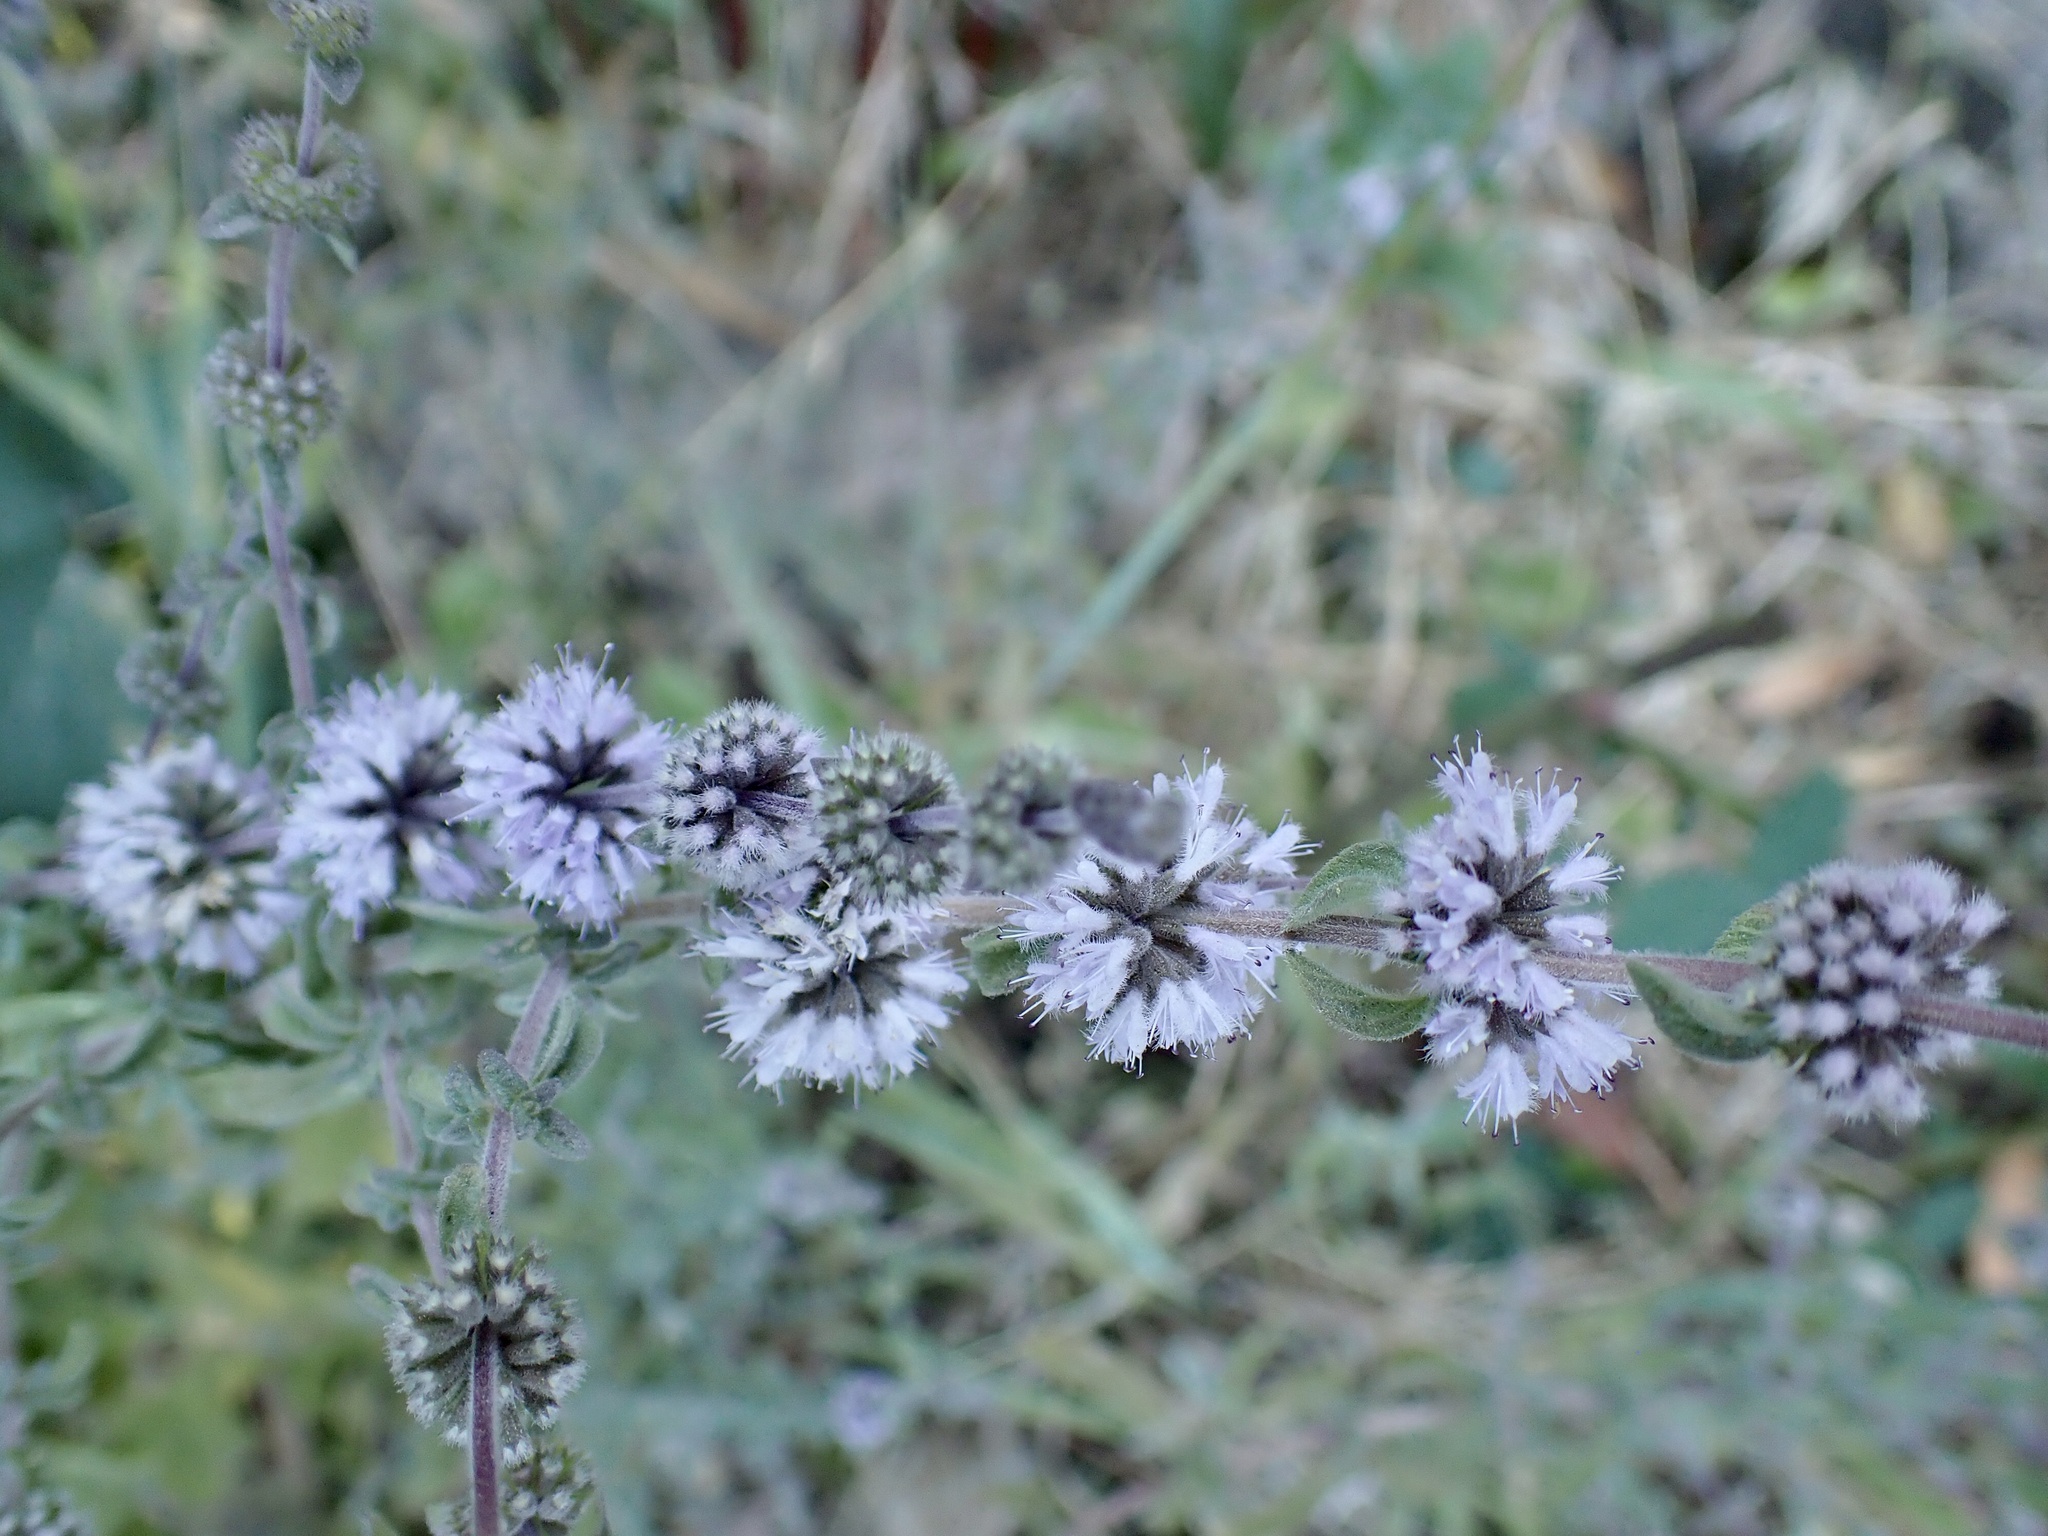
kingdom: Plantae
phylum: Tracheophyta
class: Magnoliopsida
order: Lamiales
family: Lamiaceae
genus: Mentha
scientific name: Mentha pulegium
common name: Pennyroyal
